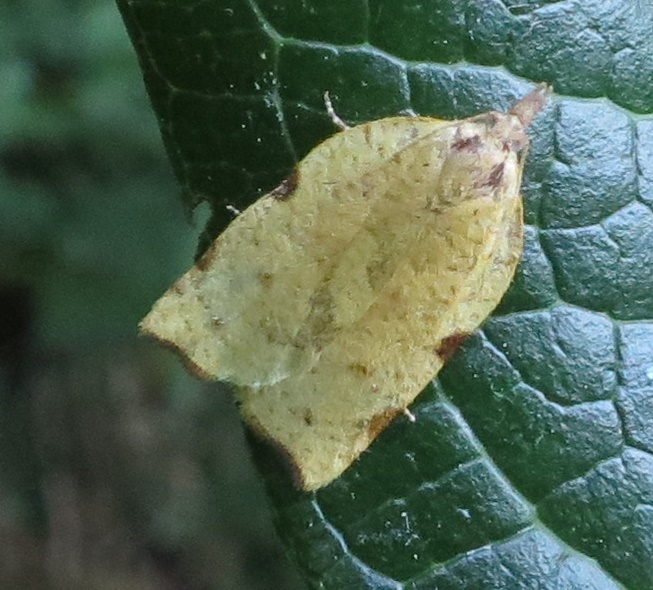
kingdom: Animalia
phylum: Arthropoda
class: Insecta
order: Lepidoptera
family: Tortricidae
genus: Apoctena
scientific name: Apoctena flavescens
